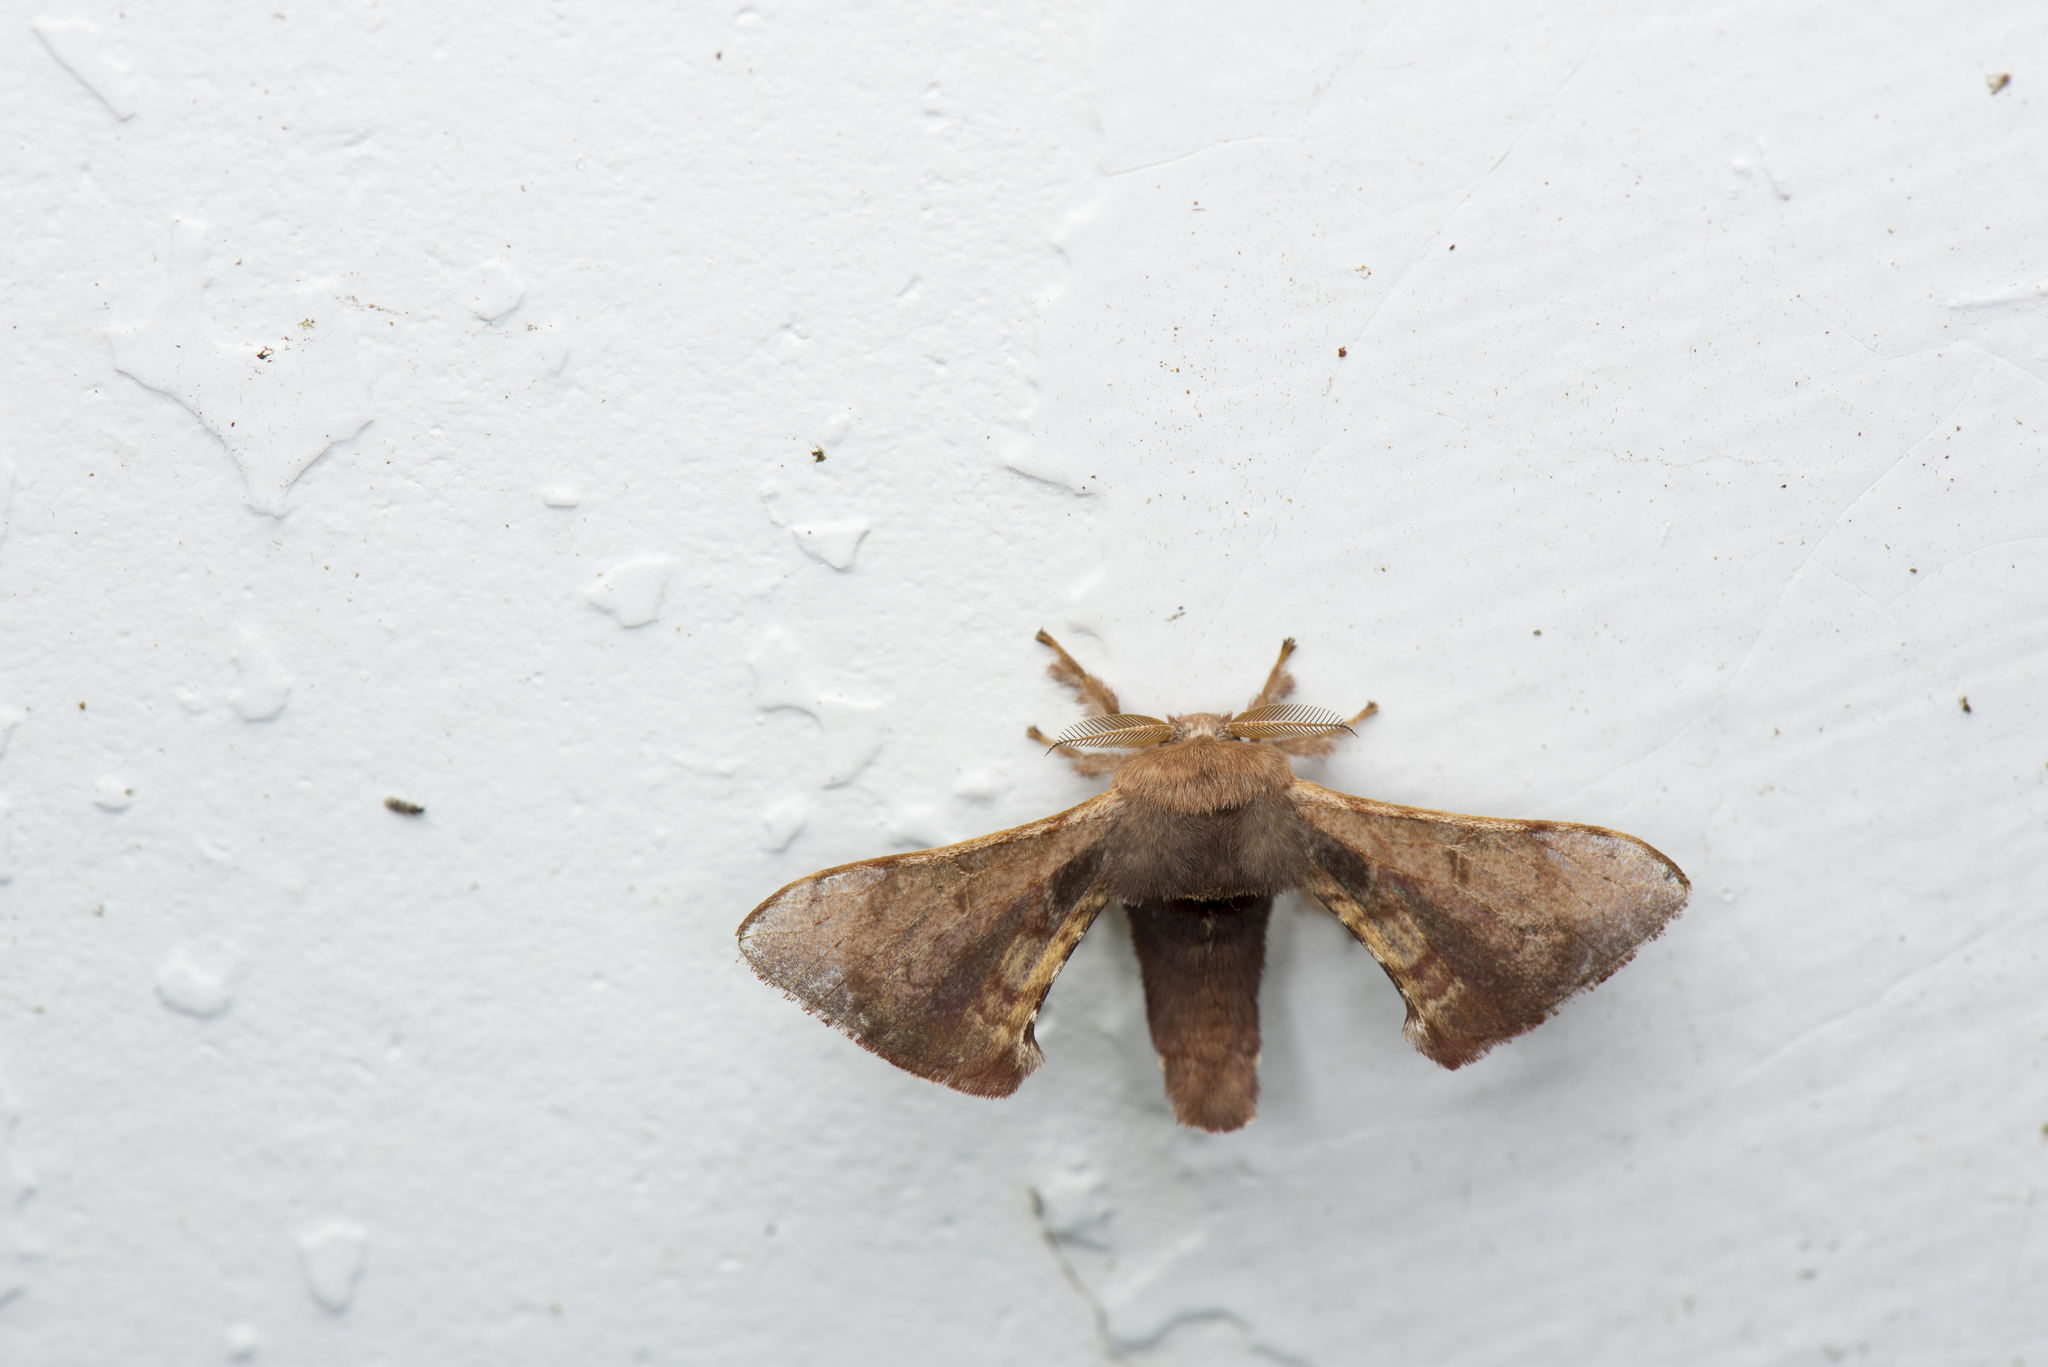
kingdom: Animalia
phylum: Arthropoda
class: Insecta
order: Lepidoptera
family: Bombycidae
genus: Triuncina
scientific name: Triuncina brunnea
